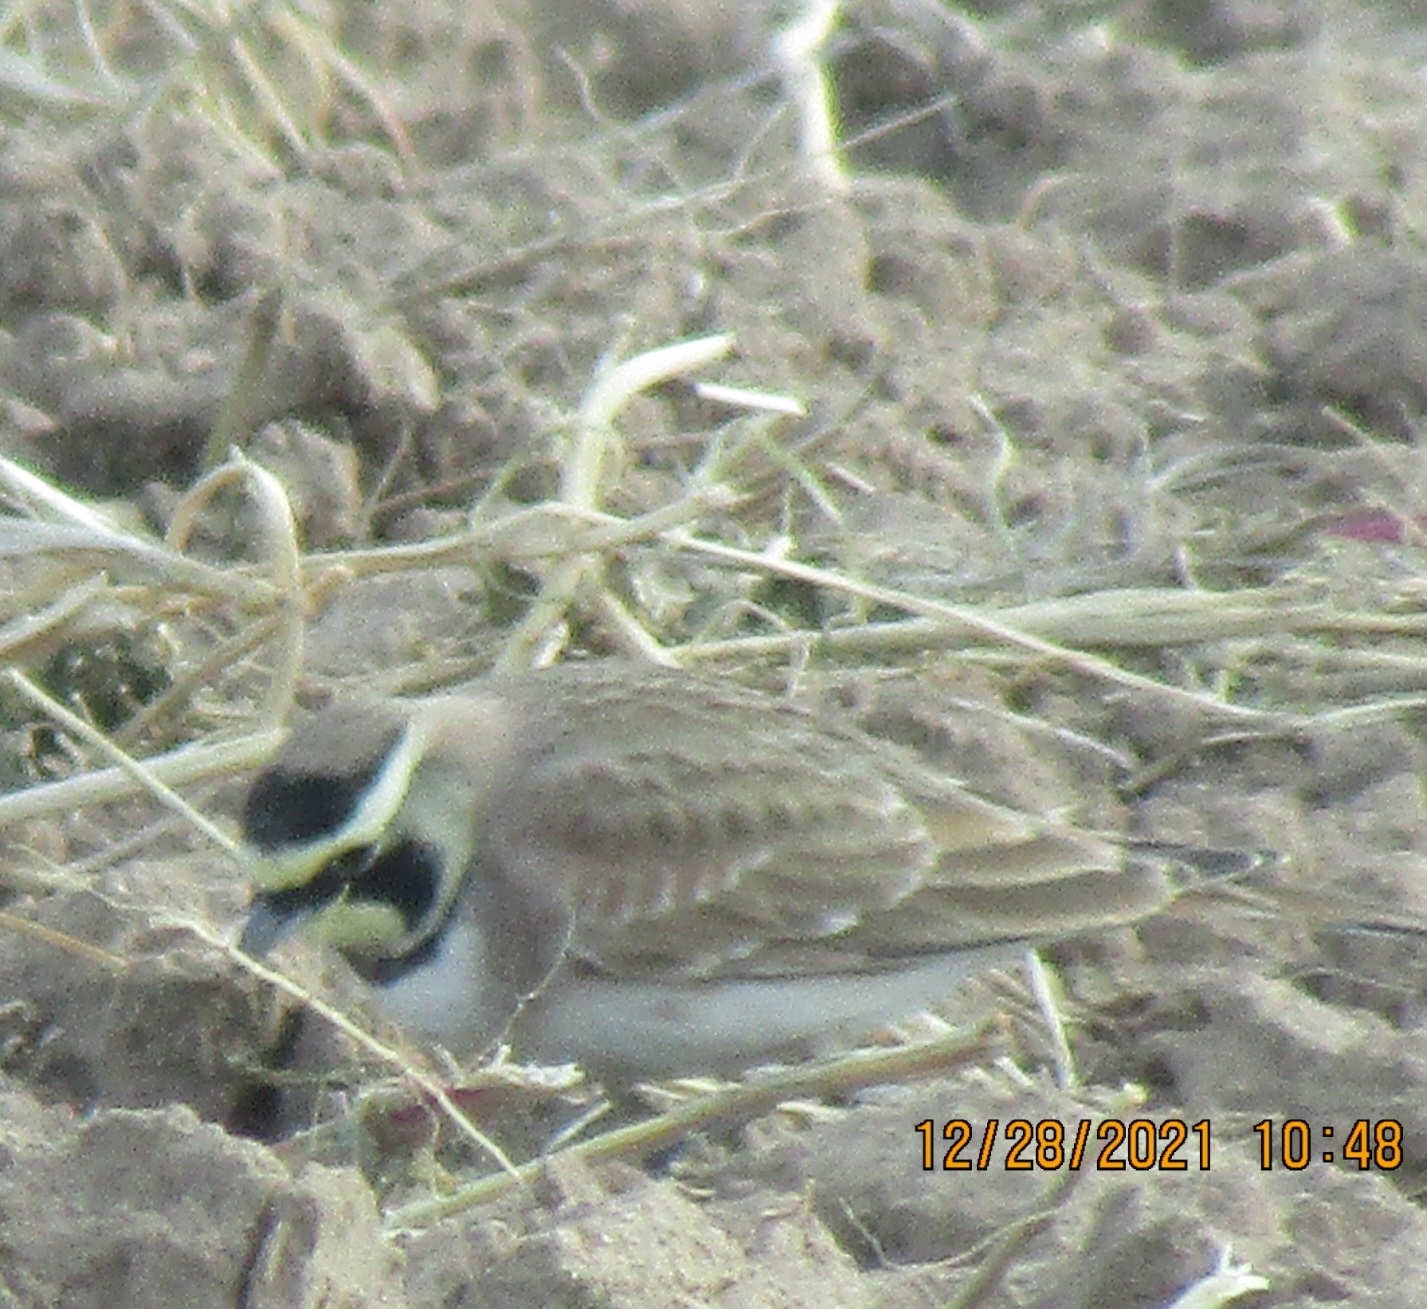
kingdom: Animalia
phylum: Chordata
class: Aves
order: Passeriformes
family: Alaudidae
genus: Eremophila
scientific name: Eremophila alpestris
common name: Horned lark
